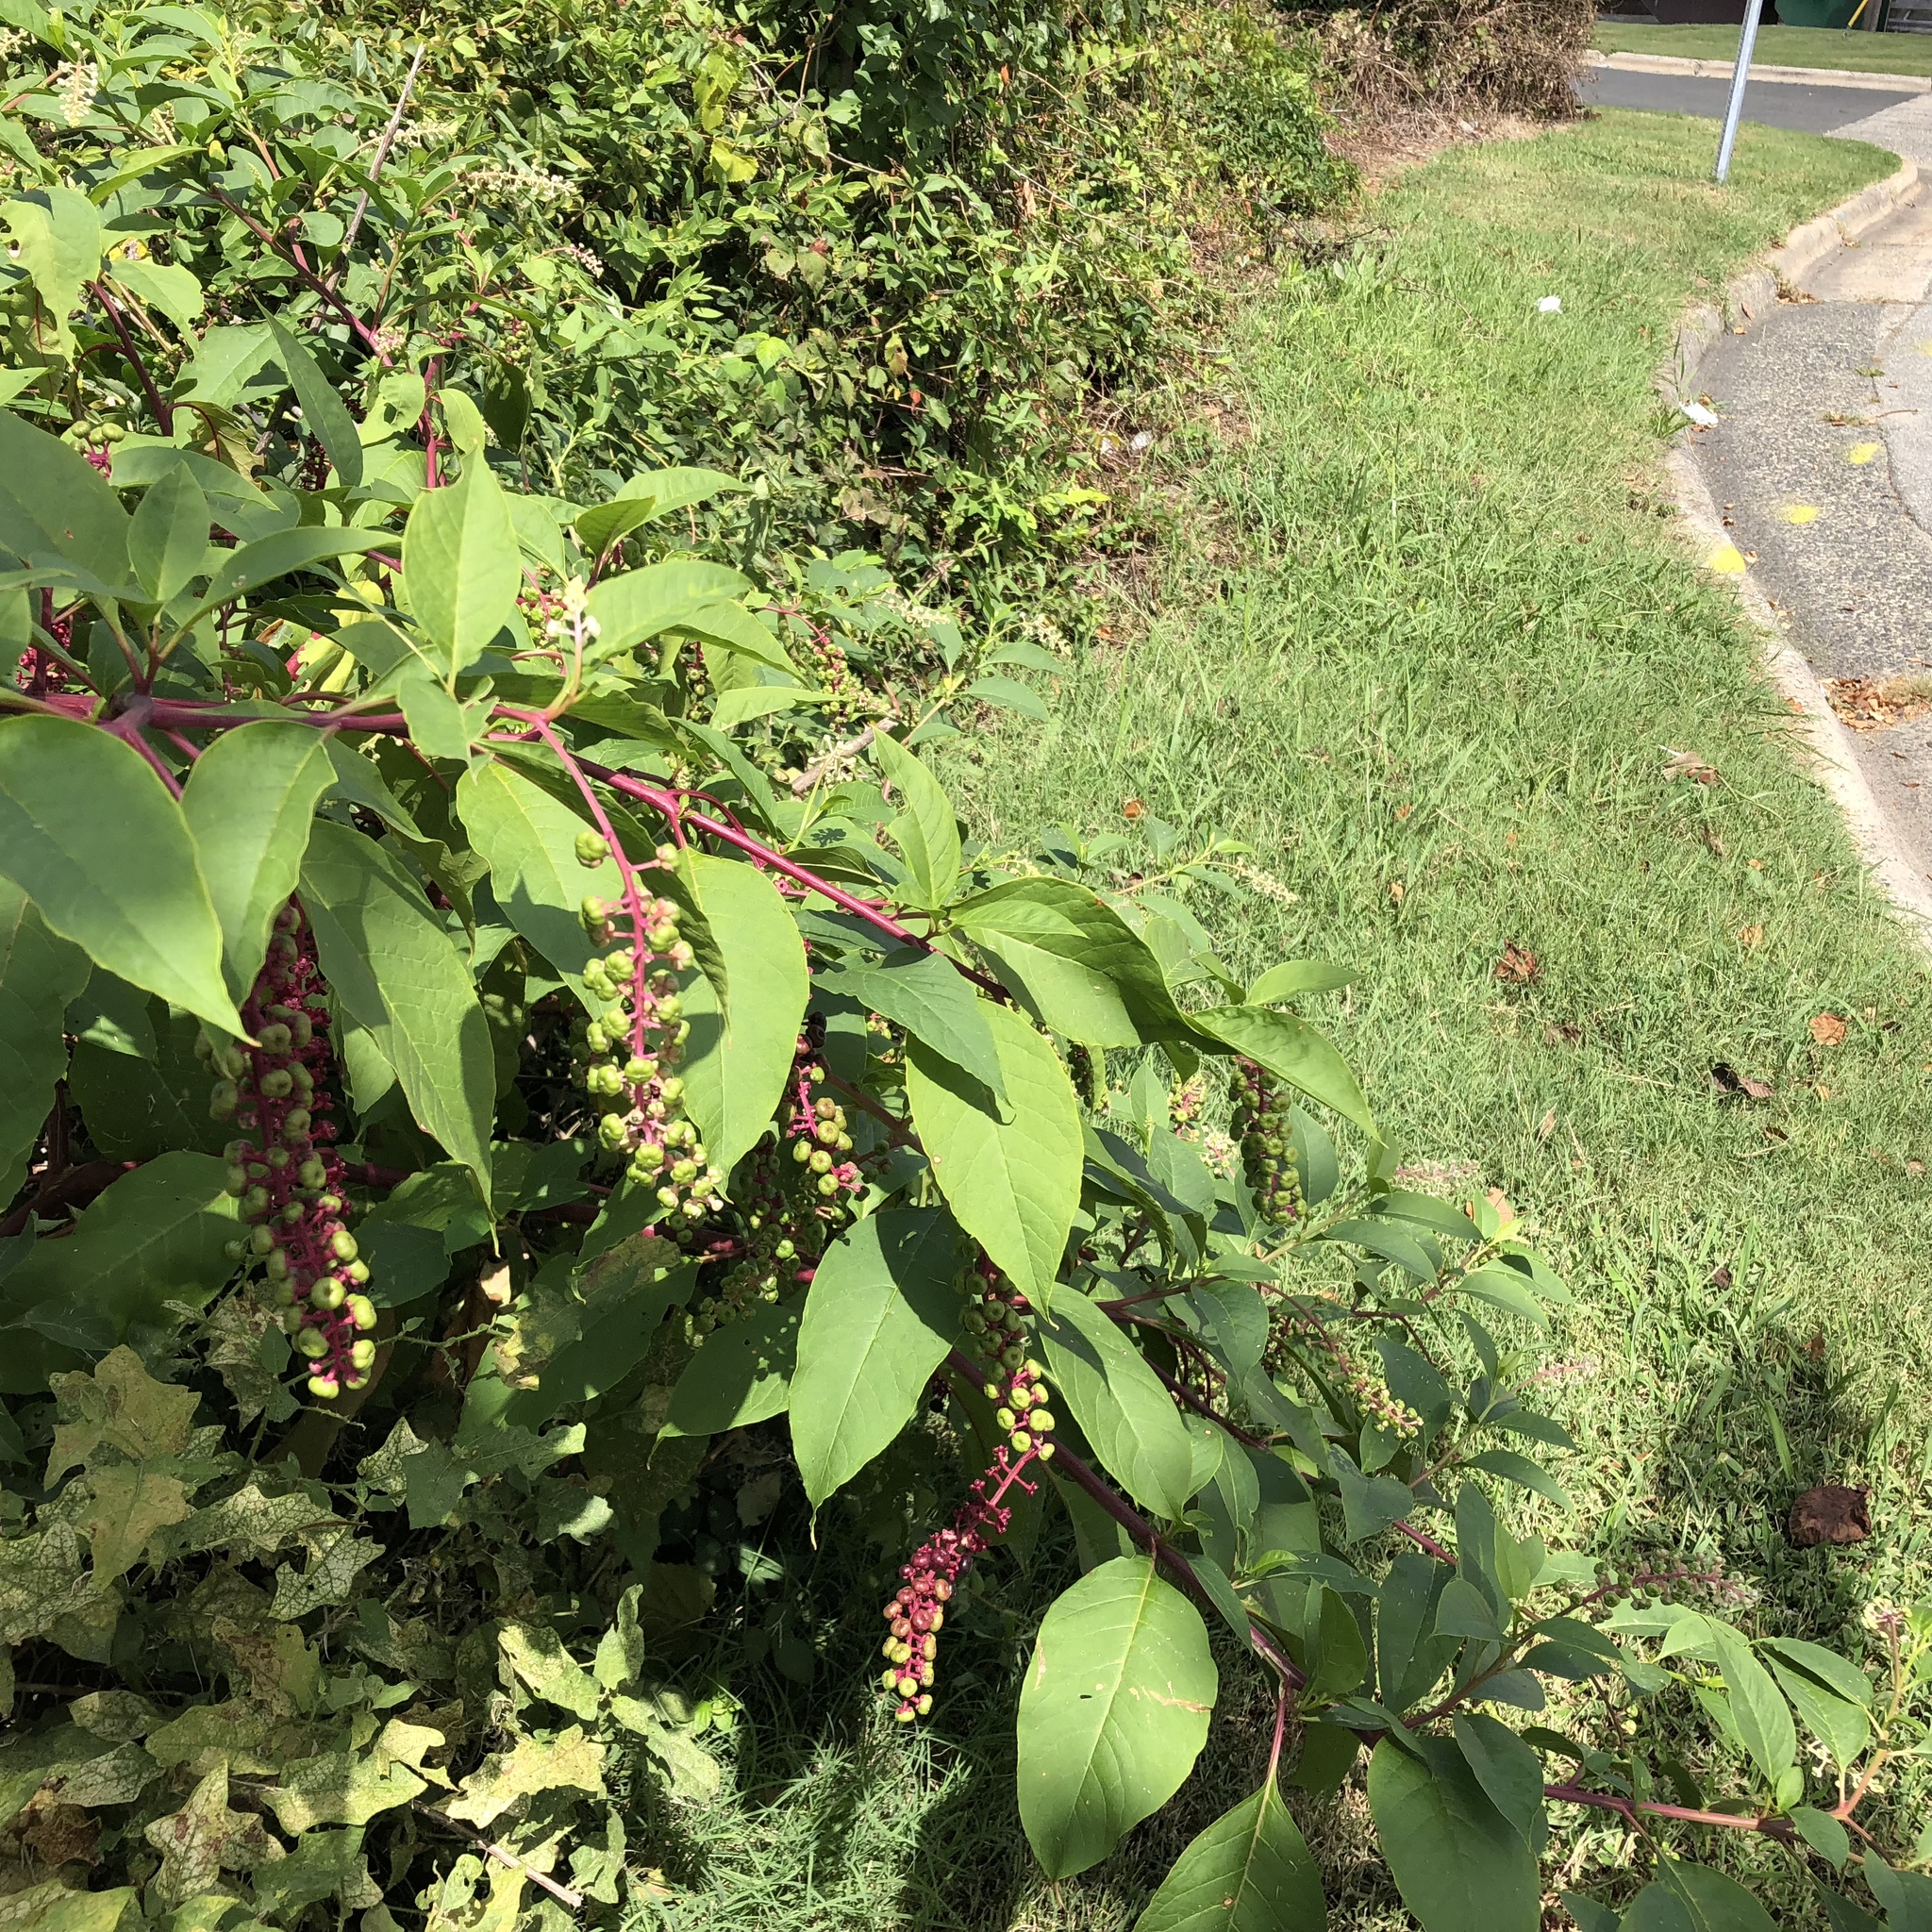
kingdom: Plantae
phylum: Tracheophyta
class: Magnoliopsida
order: Caryophyllales
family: Phytolaccaceae
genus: Phytolacca
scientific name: Phytolacca americana
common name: American pokeweed
